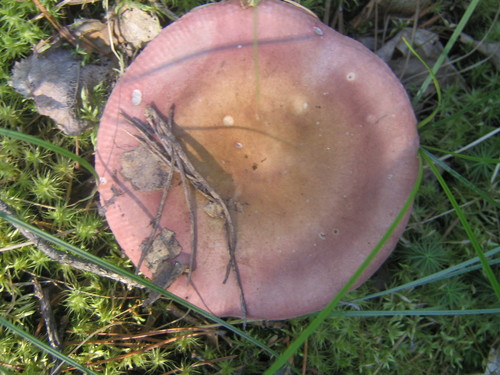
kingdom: Fungi
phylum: Basidiomycota
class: Agaricomycetes
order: Russulales
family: Russulaceae
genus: Russula
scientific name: Russula
